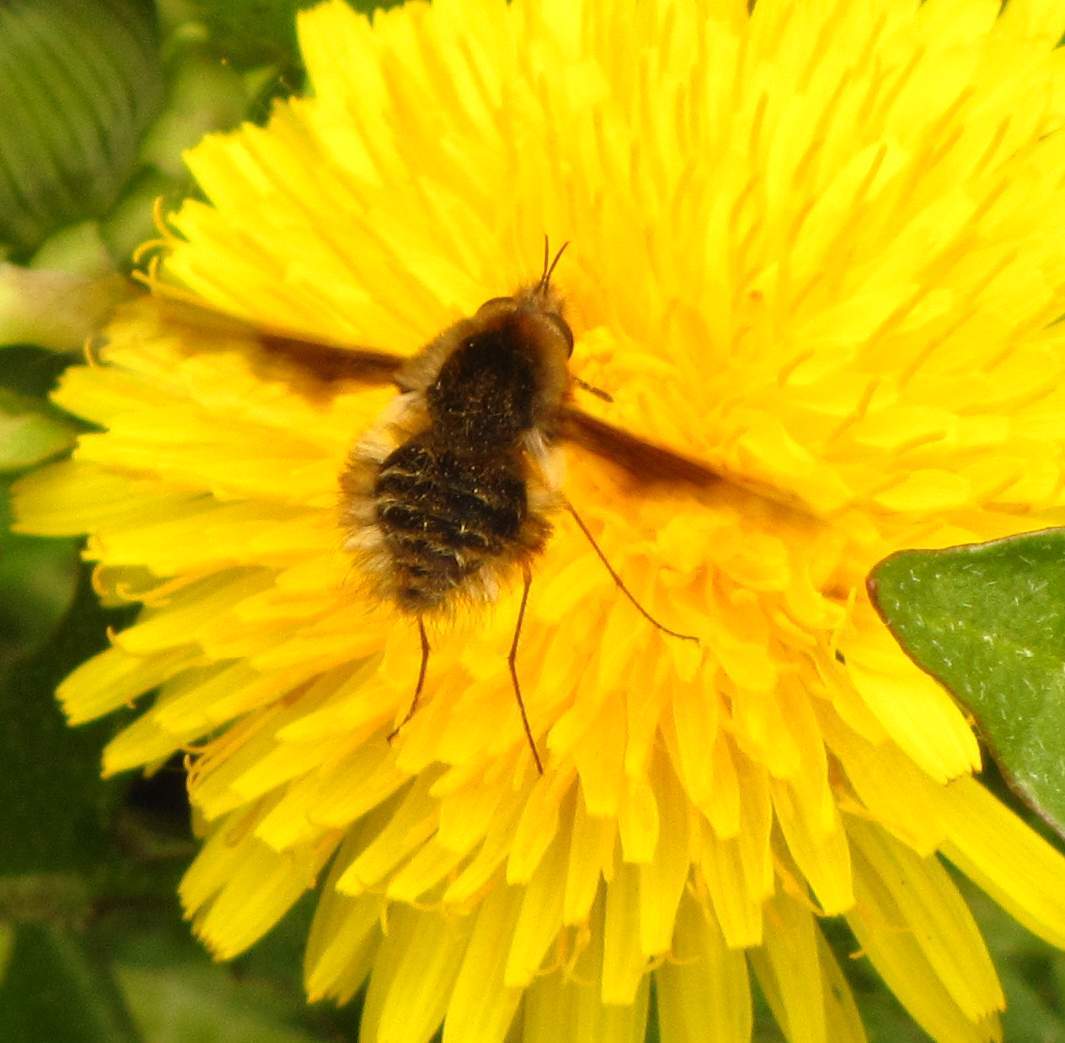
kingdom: Animalia
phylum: Arthropoda
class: Insecta
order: Diptera
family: Bombyliidae
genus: Bombylius
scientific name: Bombylius major
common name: Bee fly
